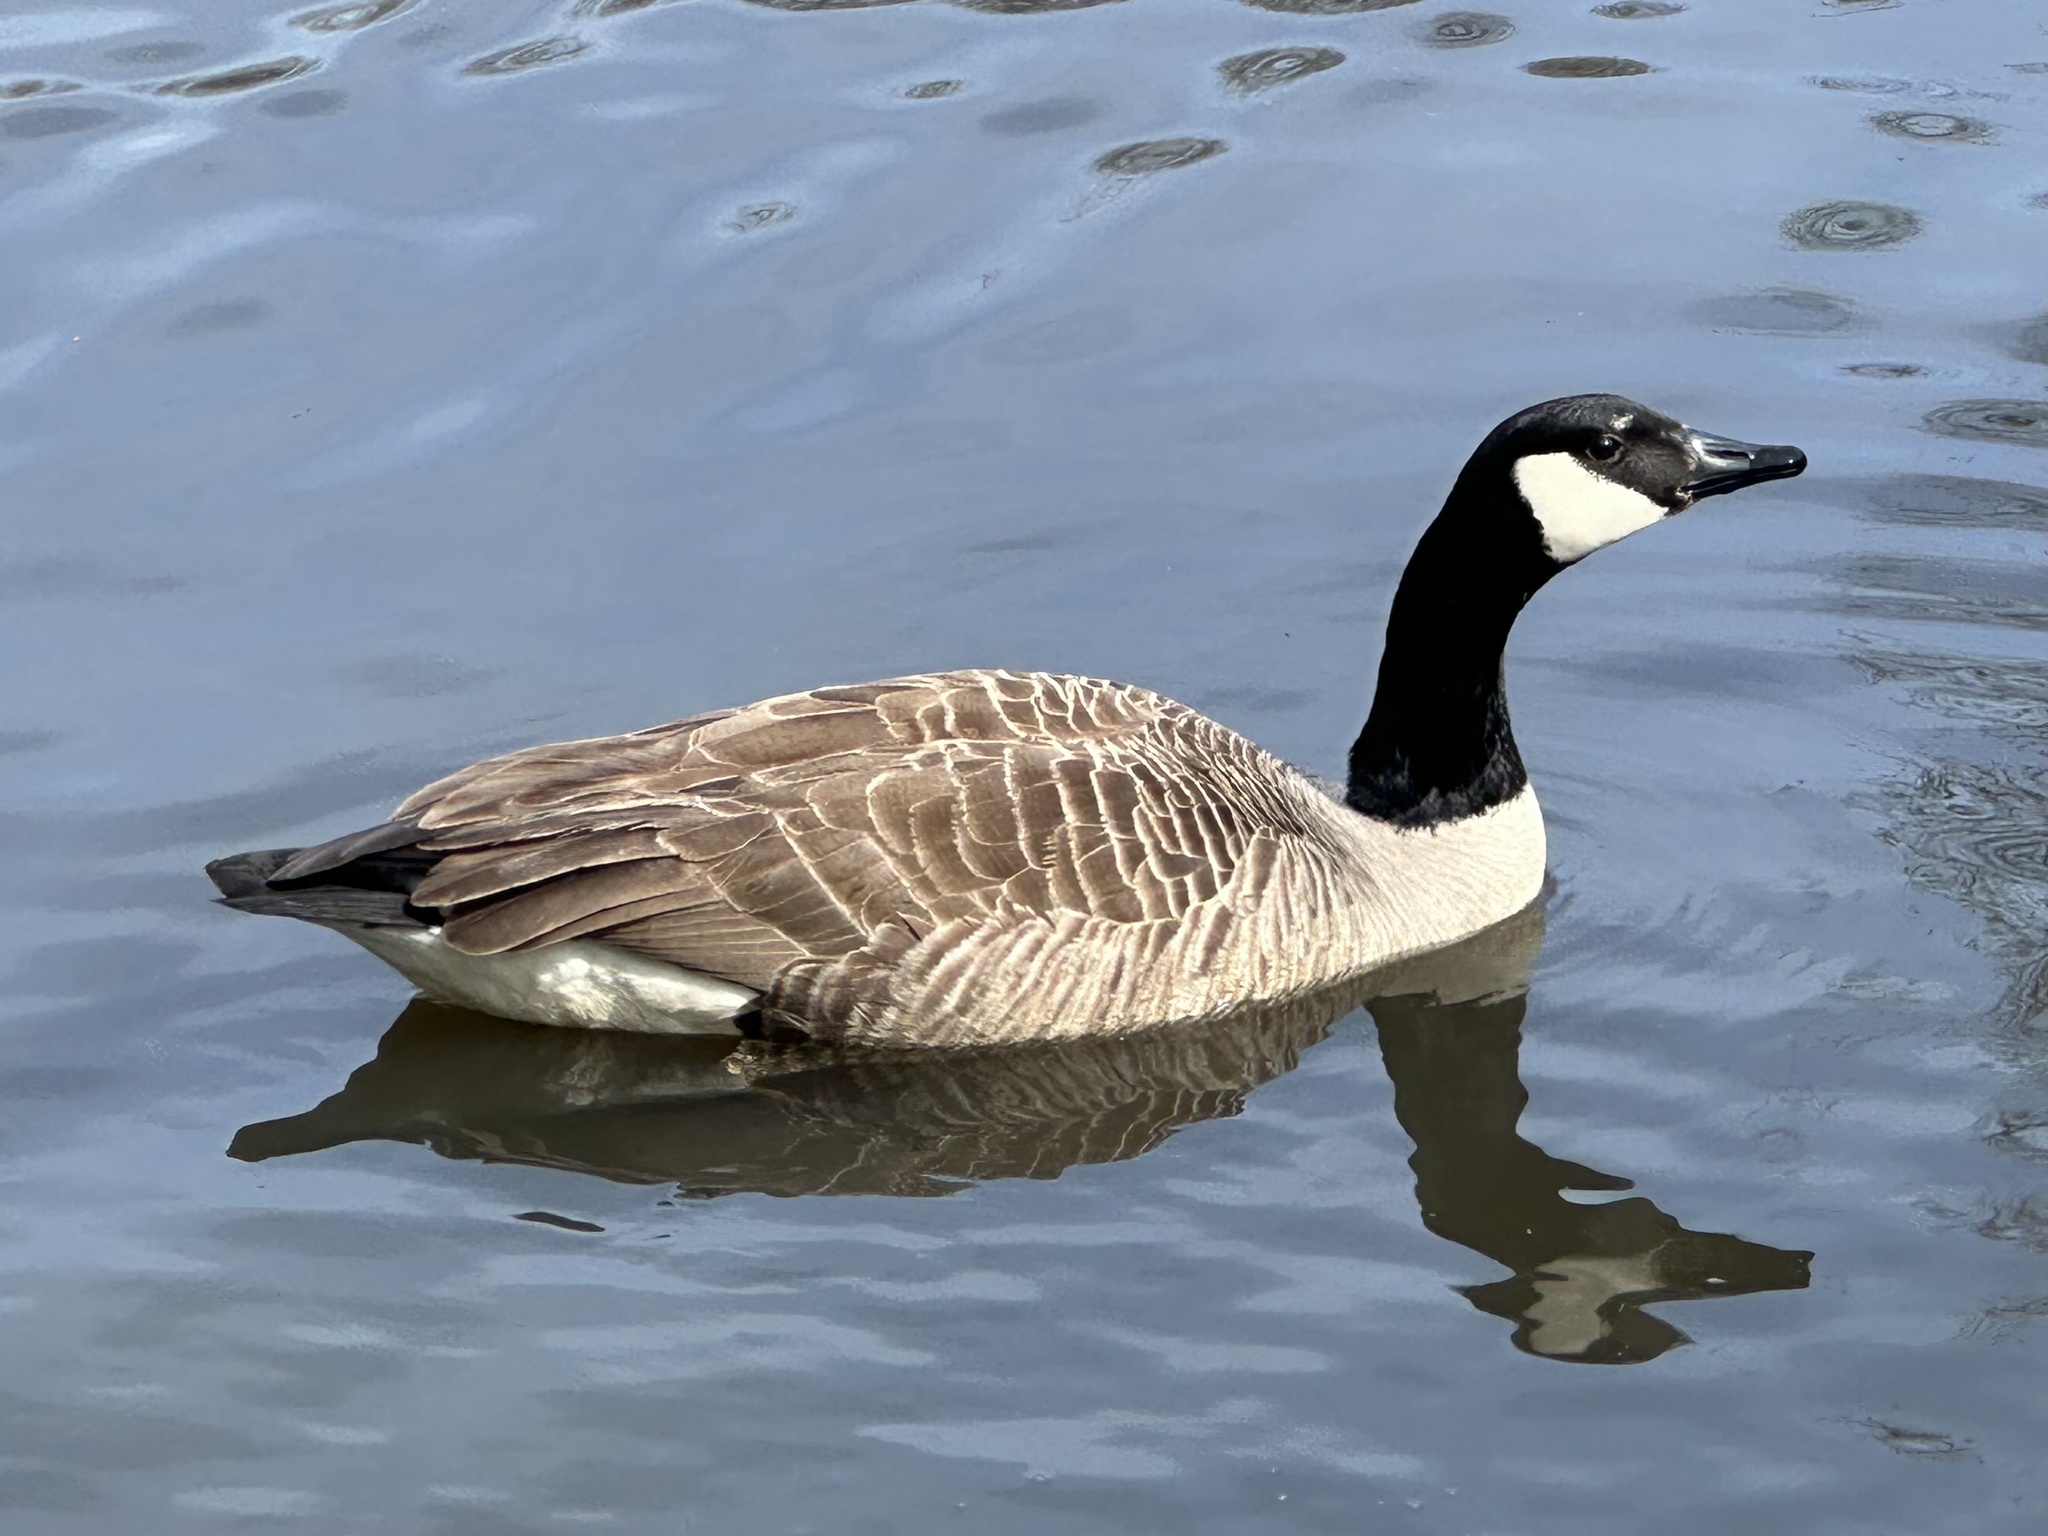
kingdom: Animalia
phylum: Chordata
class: Aves
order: Anseriformes
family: Anatidae
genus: Branta
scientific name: Branta canadensis
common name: Canada goose
